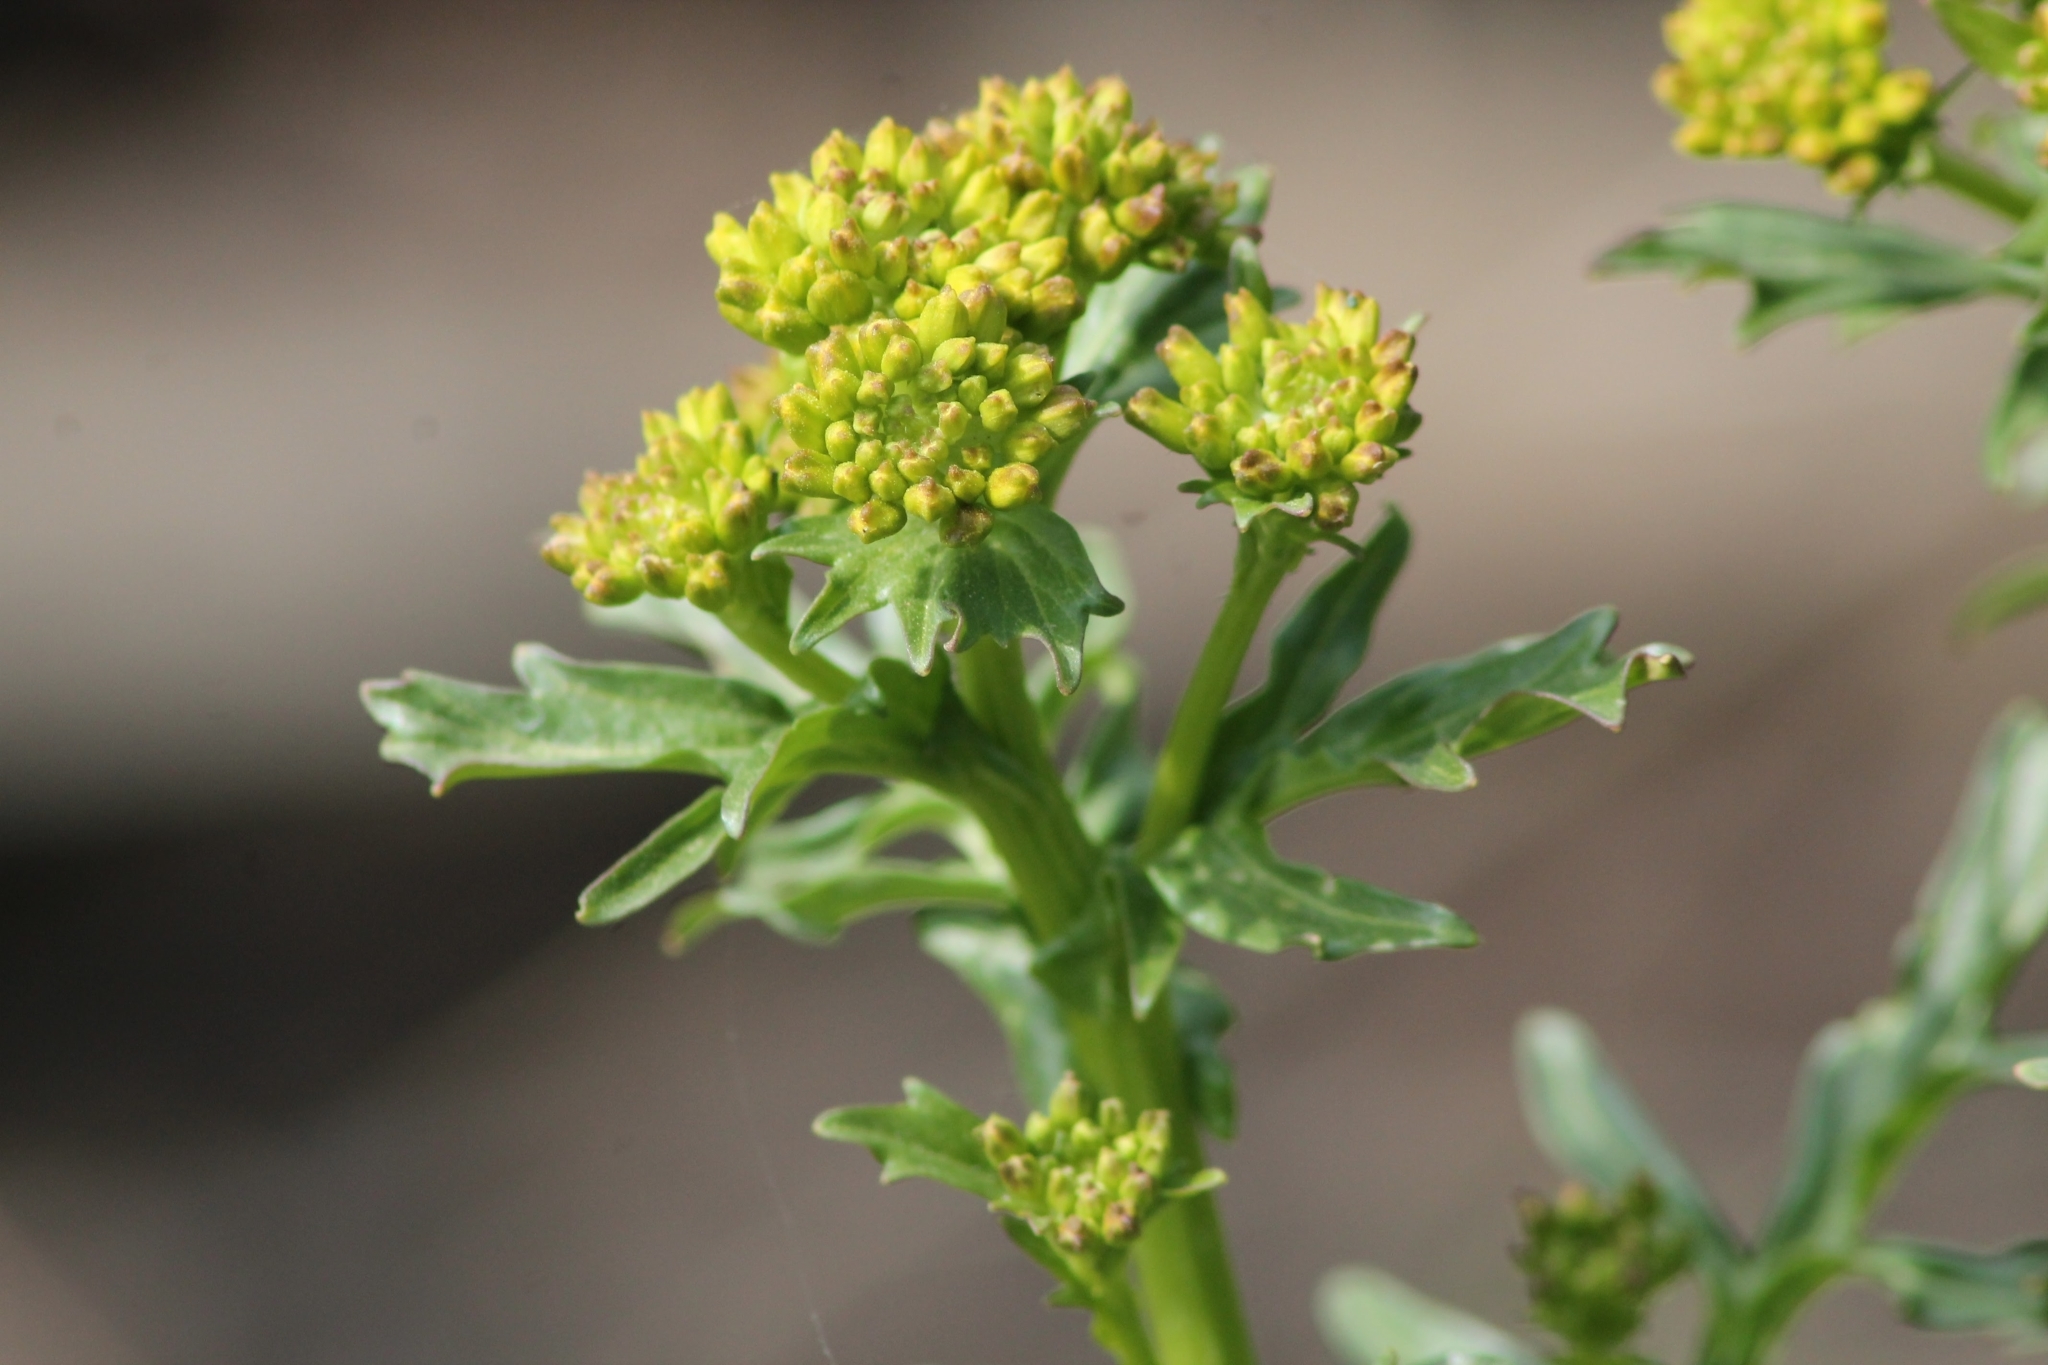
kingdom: Plantae
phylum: Tracheophyta
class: Magnoliopsida
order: Brassicales
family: Brassicaceae
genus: Barbarea
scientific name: Barbarea vulgaris
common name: Cressy-greens
